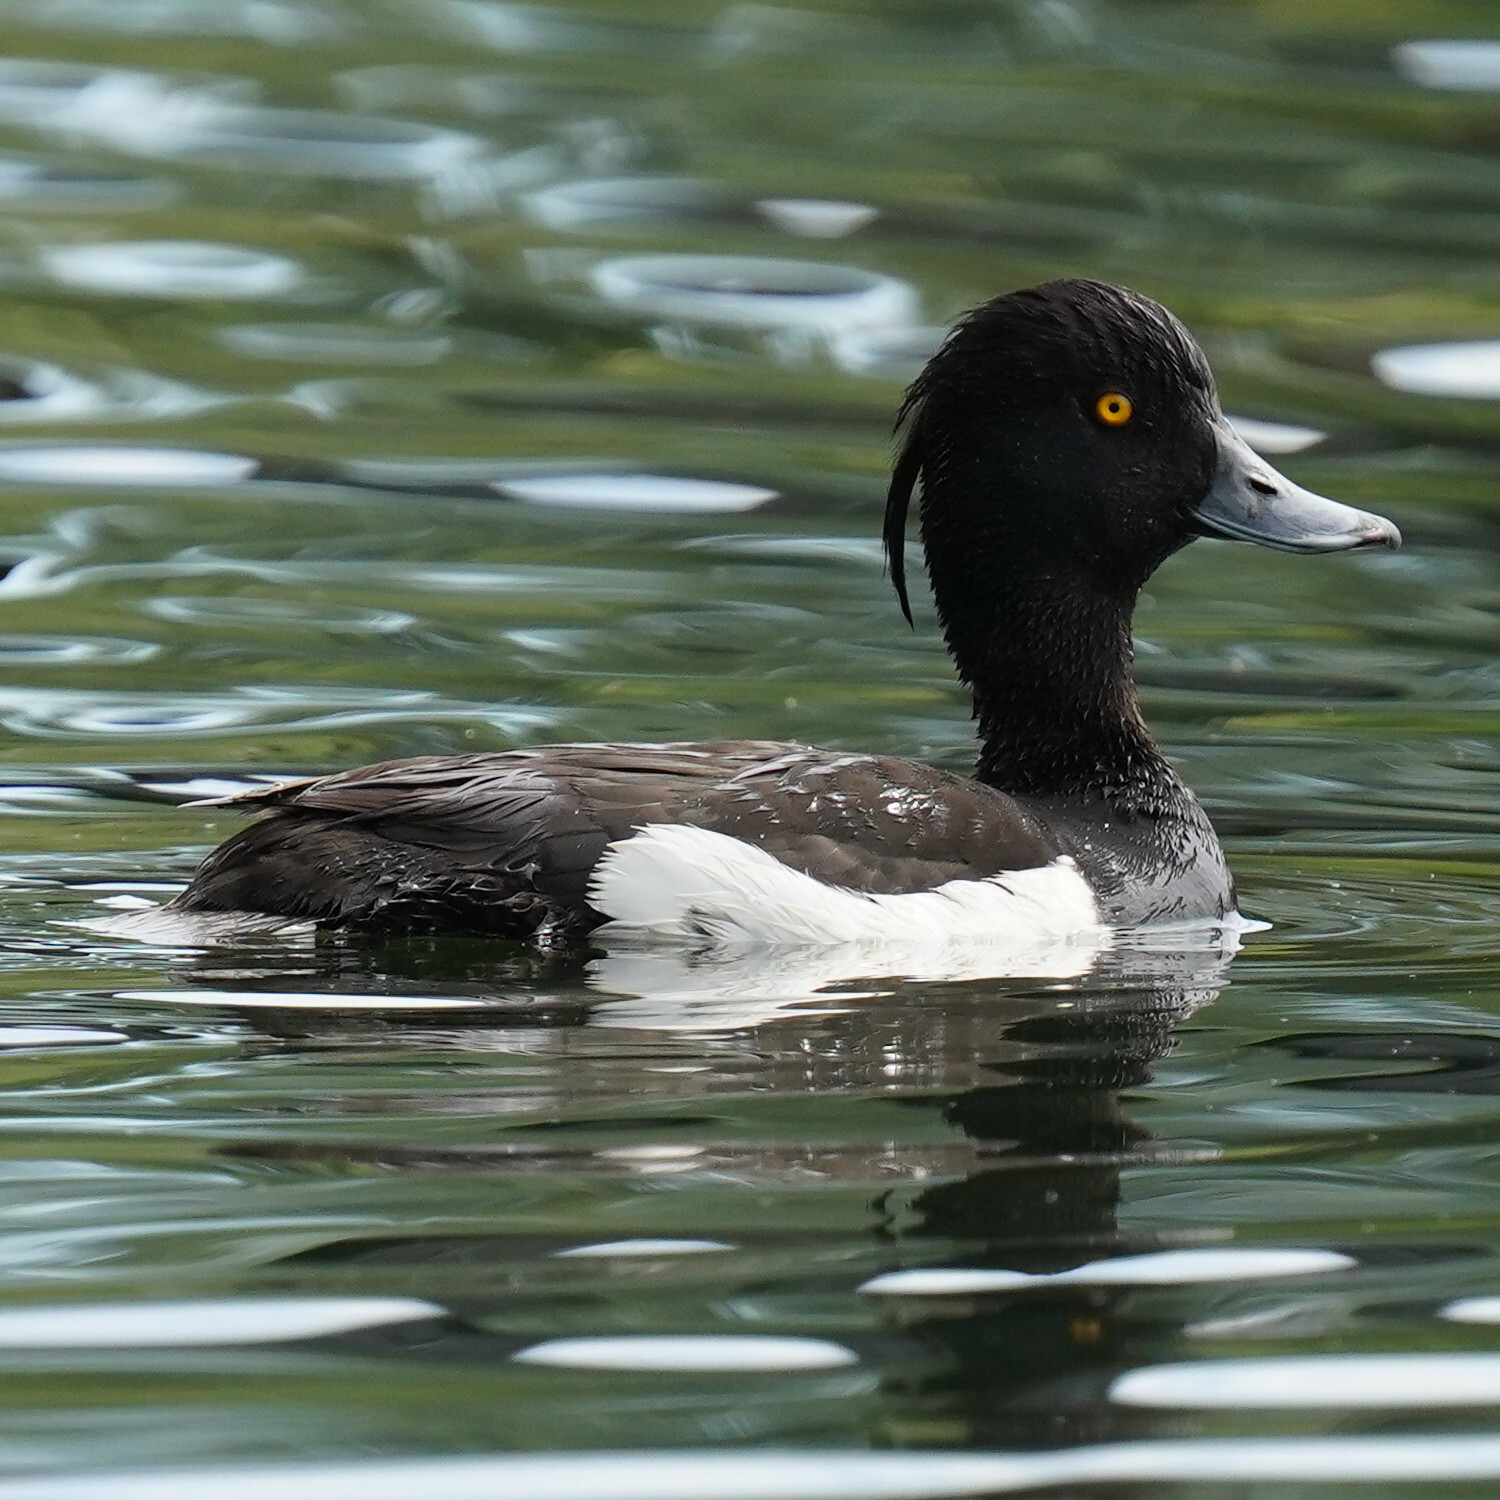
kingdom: Animalia
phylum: Chordata
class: Aves
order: Anseriformes
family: Anatidae
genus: Aythya
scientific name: Aythya fuligula
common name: Tufted duck
